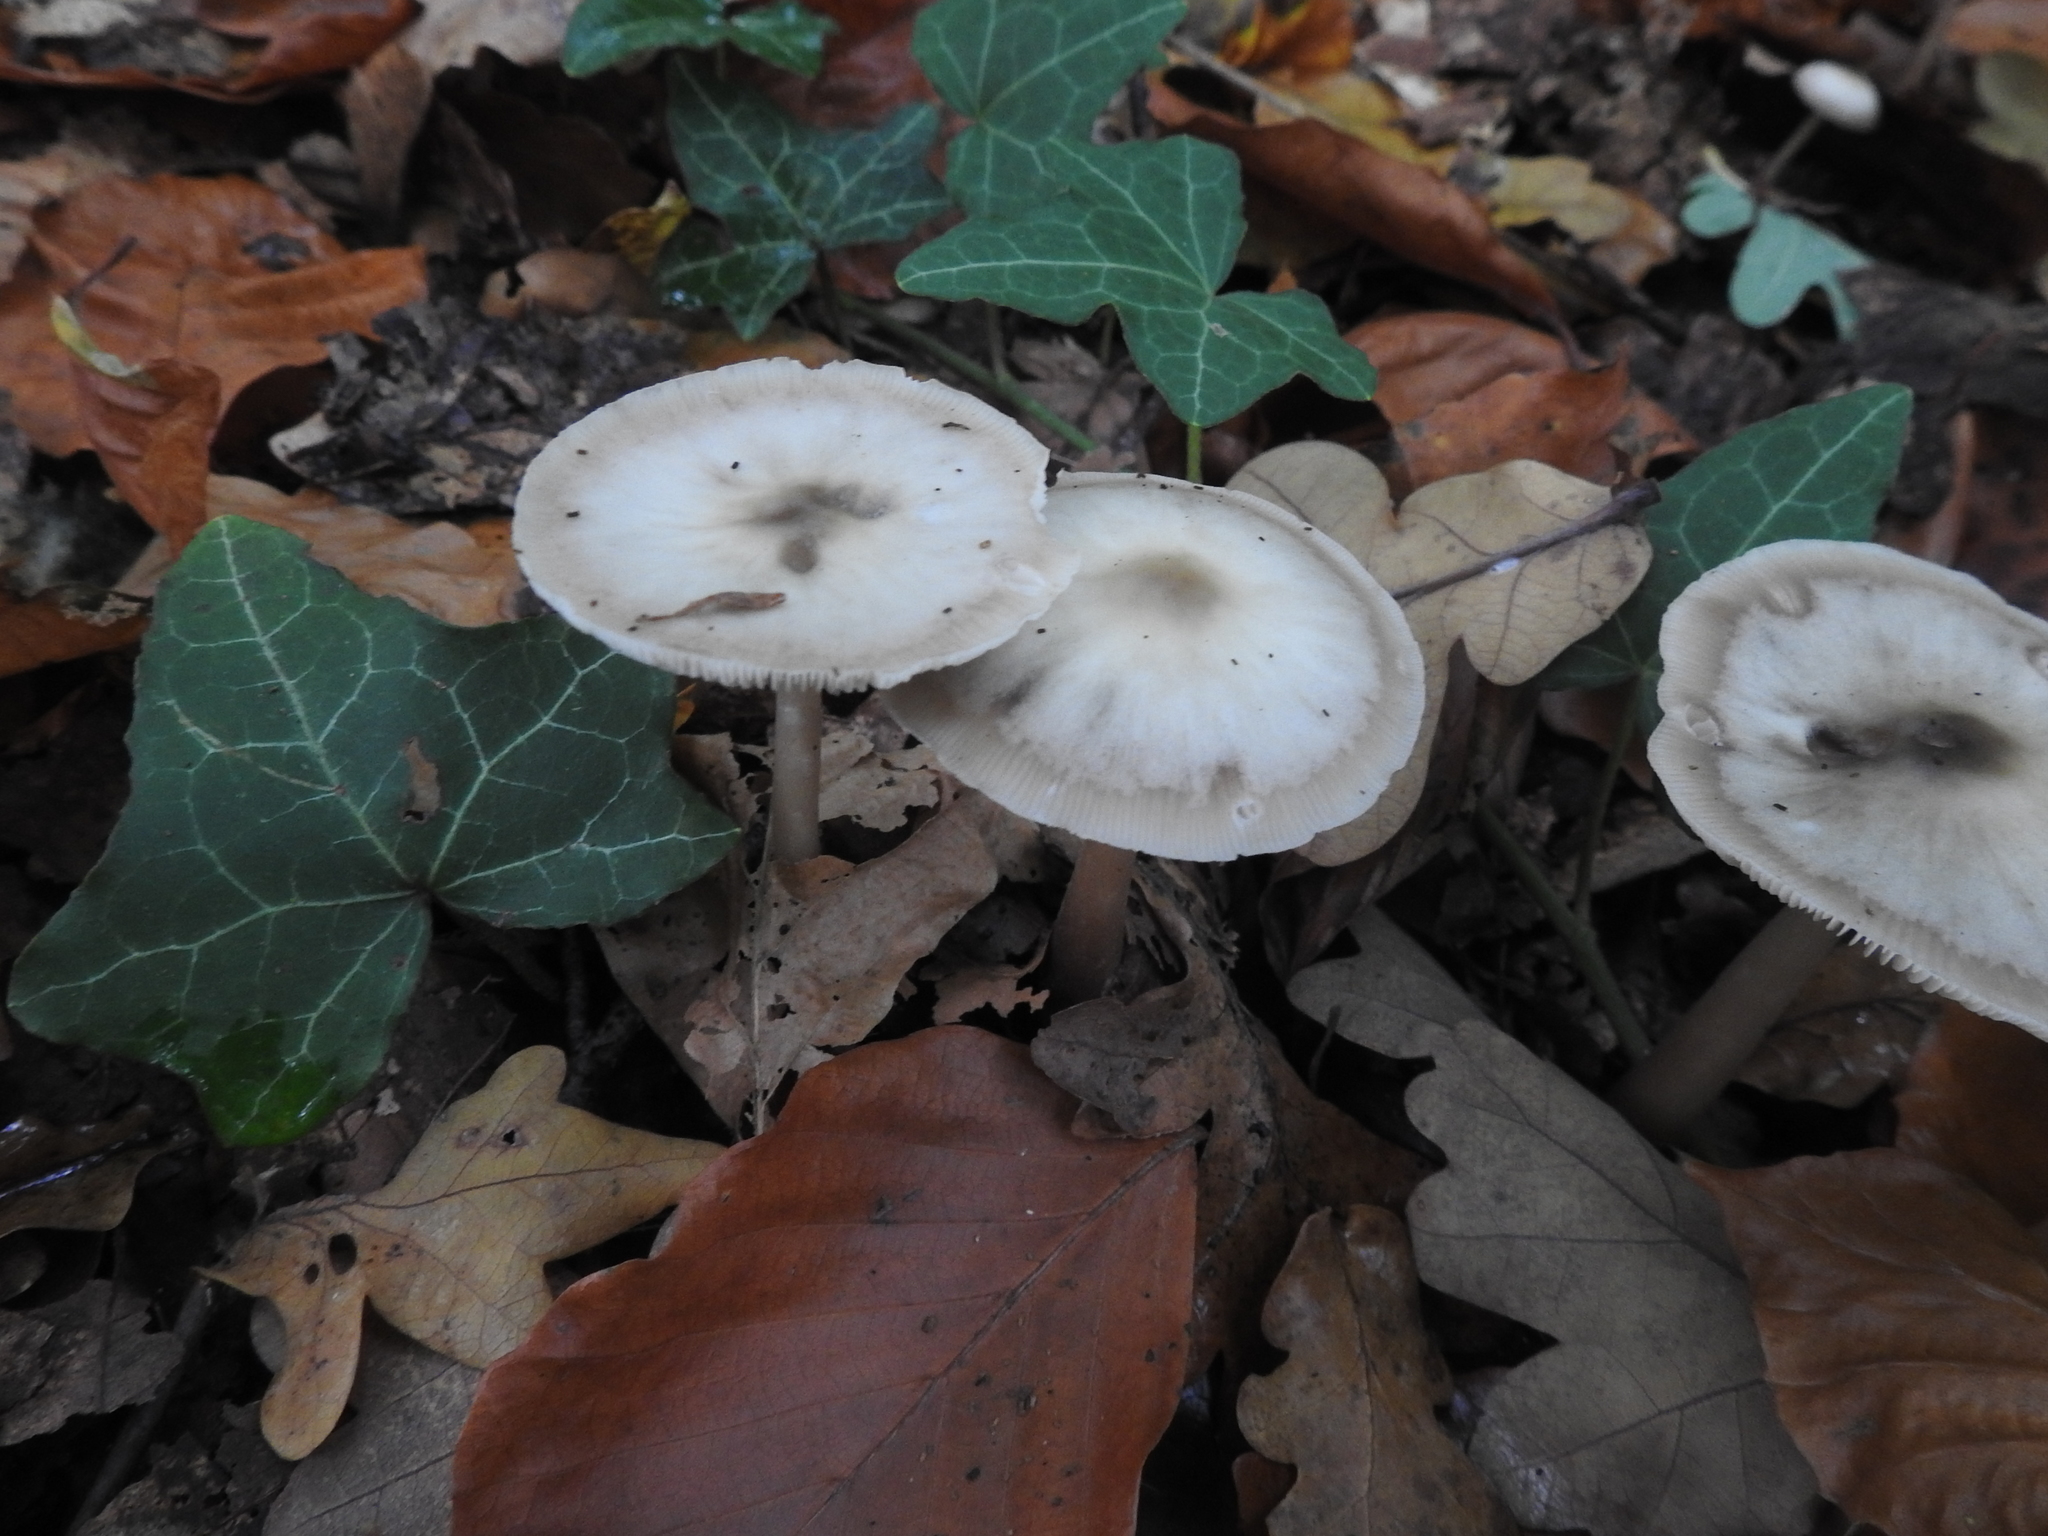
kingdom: Fungi
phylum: Basidiomycota
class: Agaricomycetes
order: Agaricales
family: Omphalotaceae
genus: Rhodocollybia
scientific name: Rhodocollybia butyracea
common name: Butter cap
